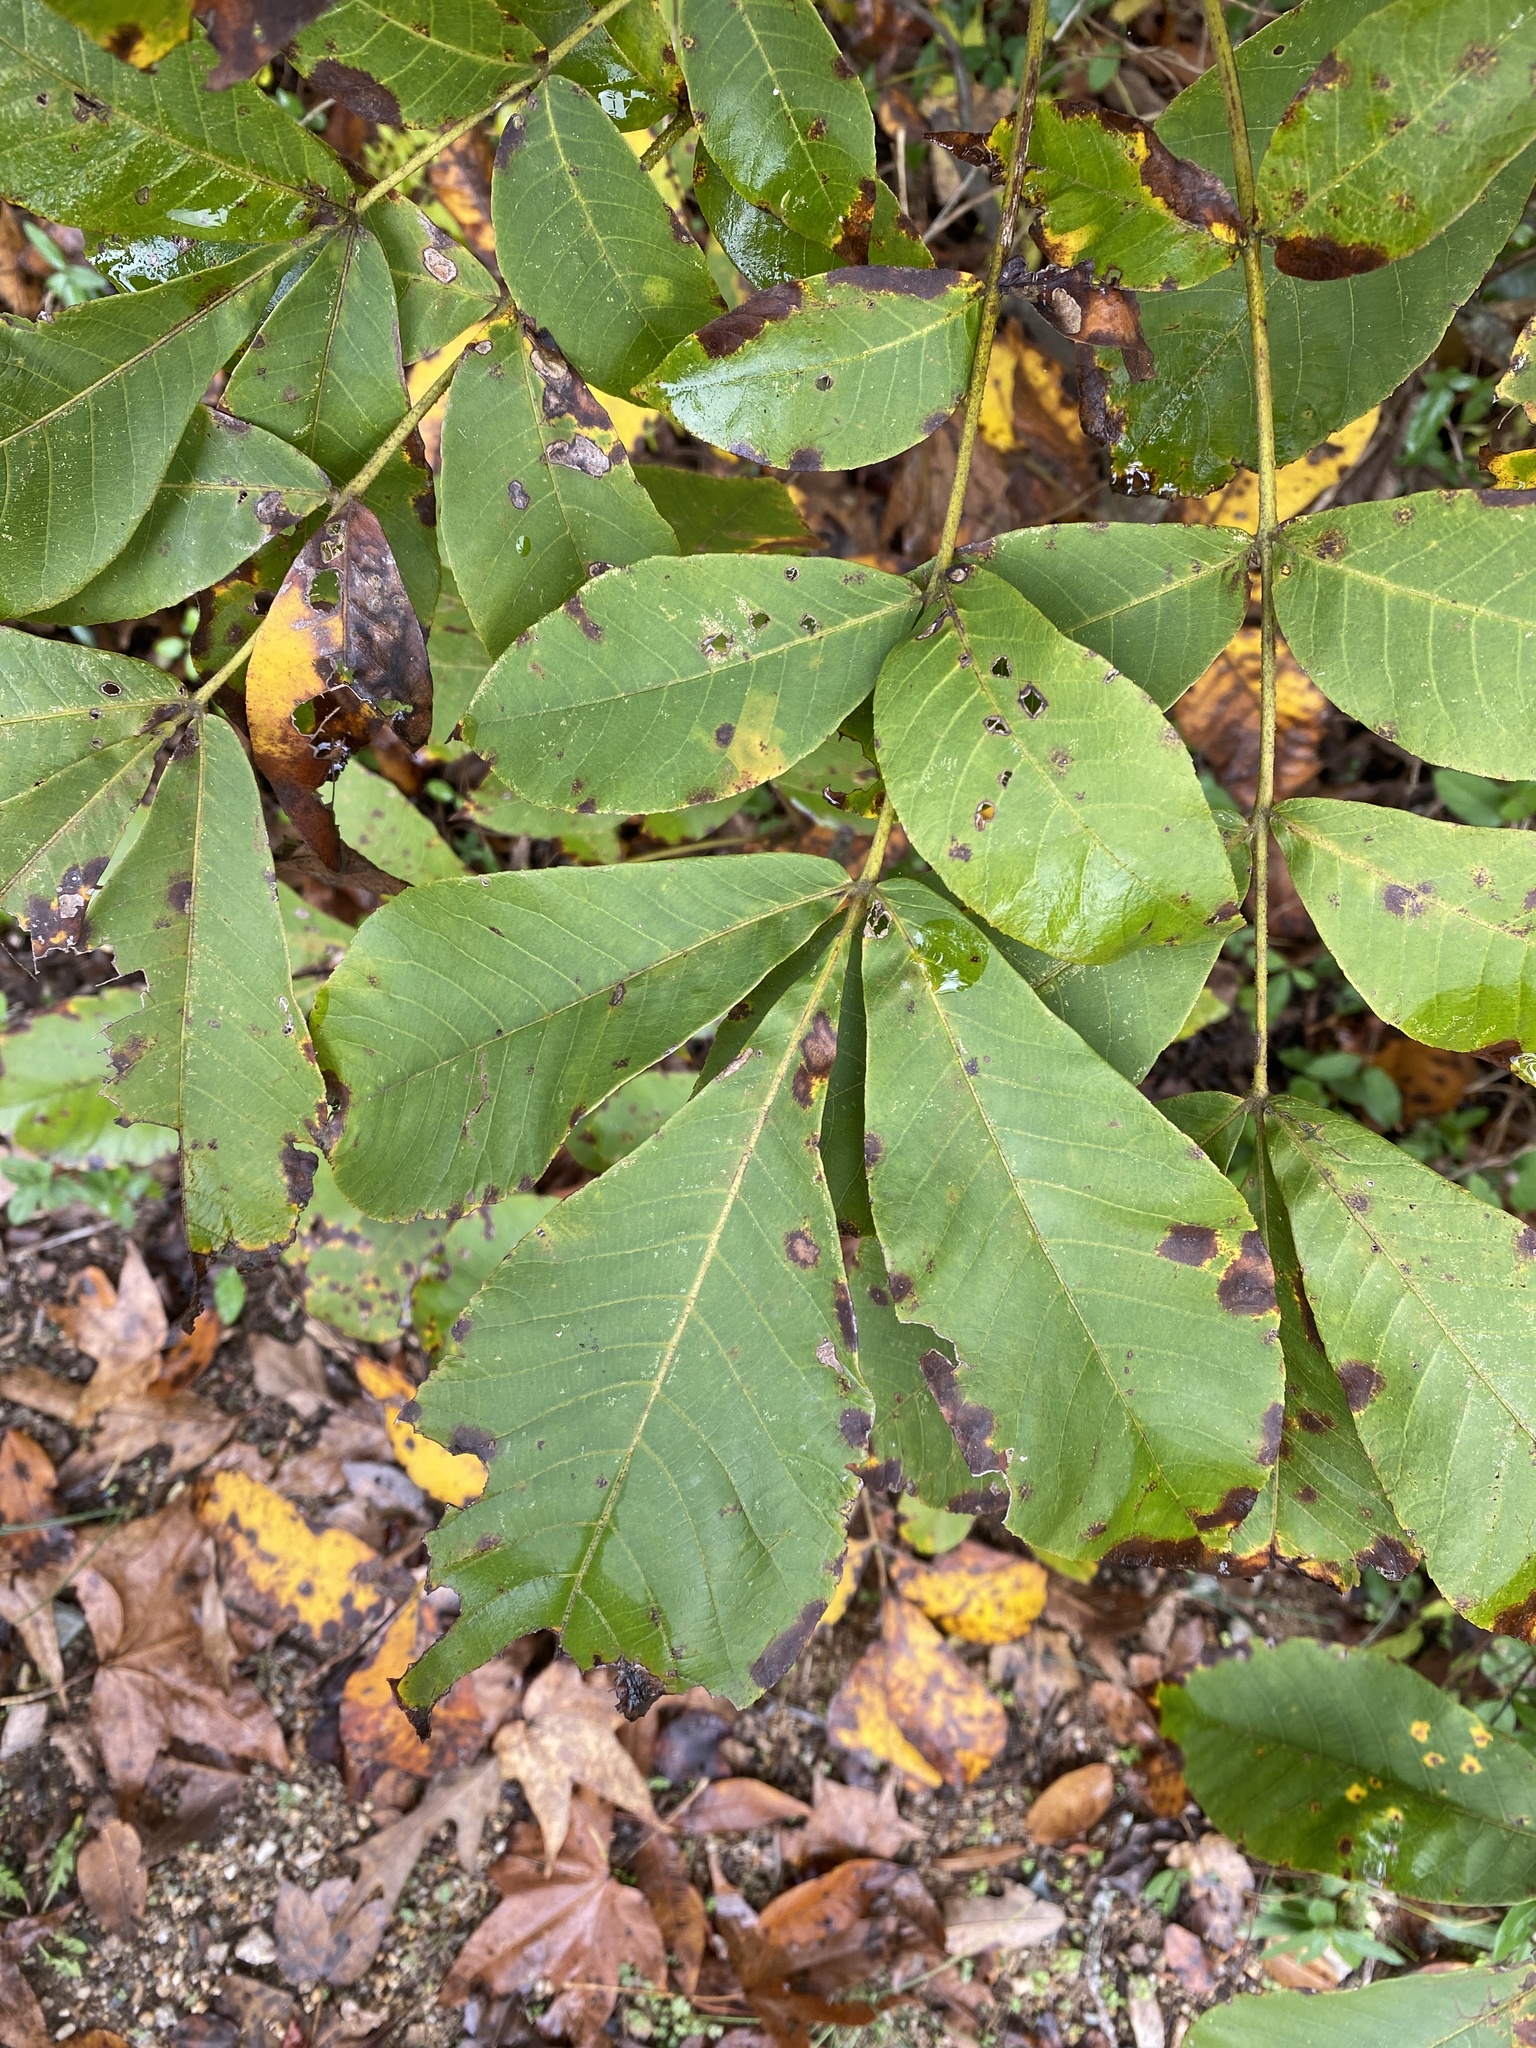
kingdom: Plantae
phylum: Tracheophyta
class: Magnoliopsida
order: Fagales
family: Juglandaceae
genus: Carya
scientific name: Carya alba
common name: Mockernut hickory
